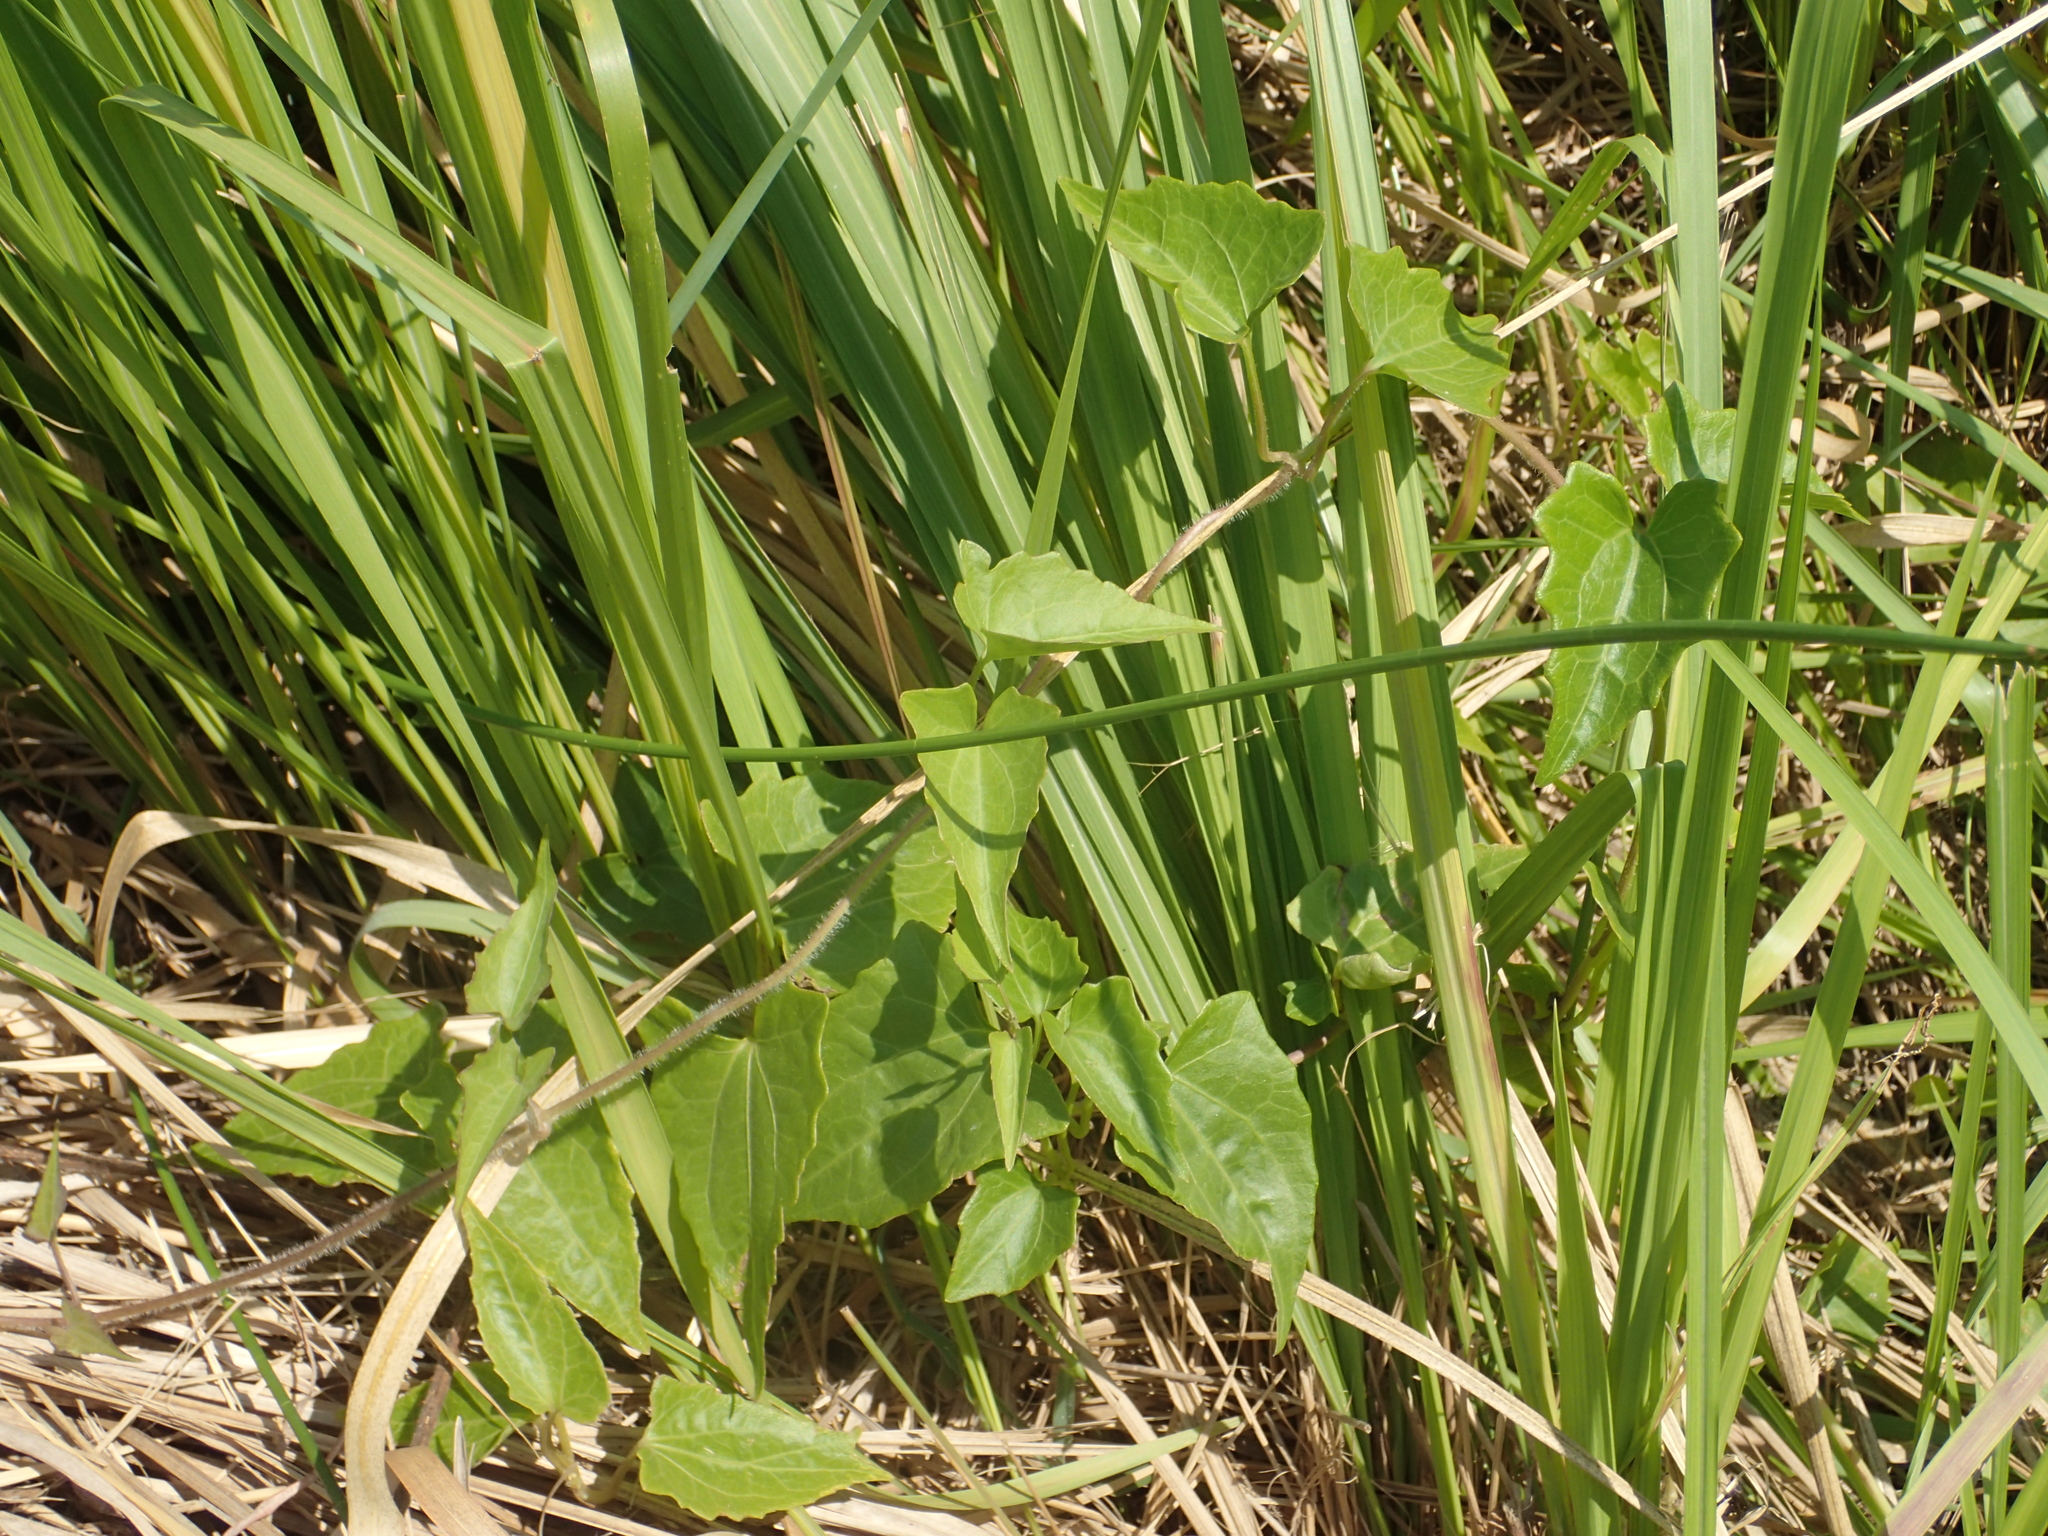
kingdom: Plantae
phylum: Tracheophyta
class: Magnoliopsida
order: Asterales
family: Asteraceae
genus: Mikania
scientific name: Mikania micrantha
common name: Mile-a-minute
